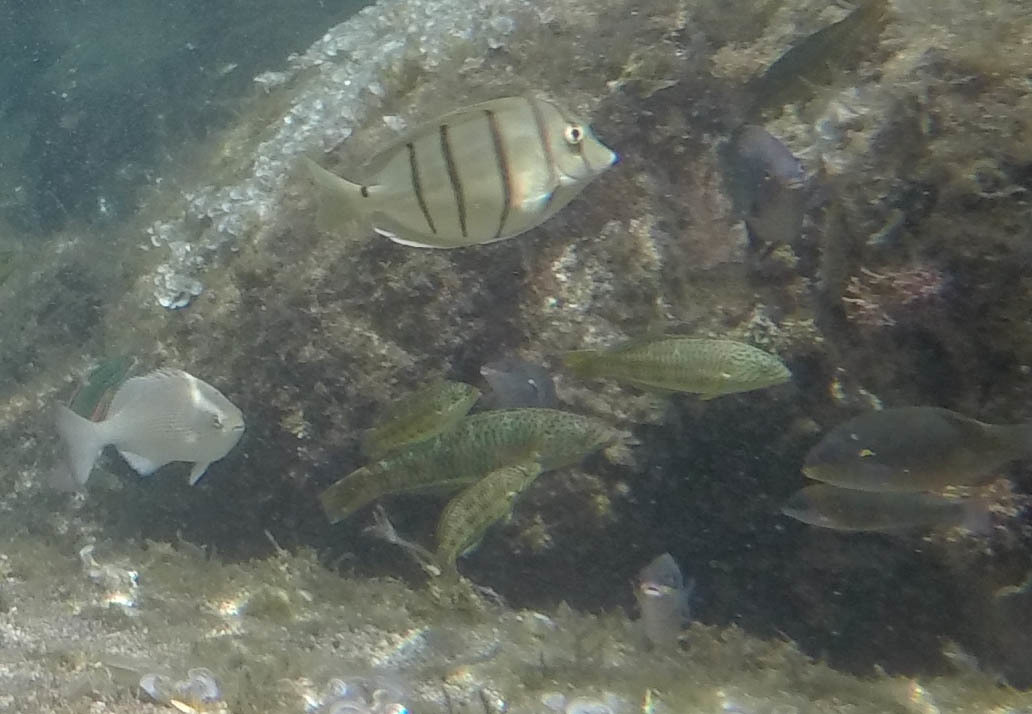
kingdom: Animalia
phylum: Chordata
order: Perciformes
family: Labridae
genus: Thalassoma
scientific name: Thalassoma purpureum
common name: Parrotfish
